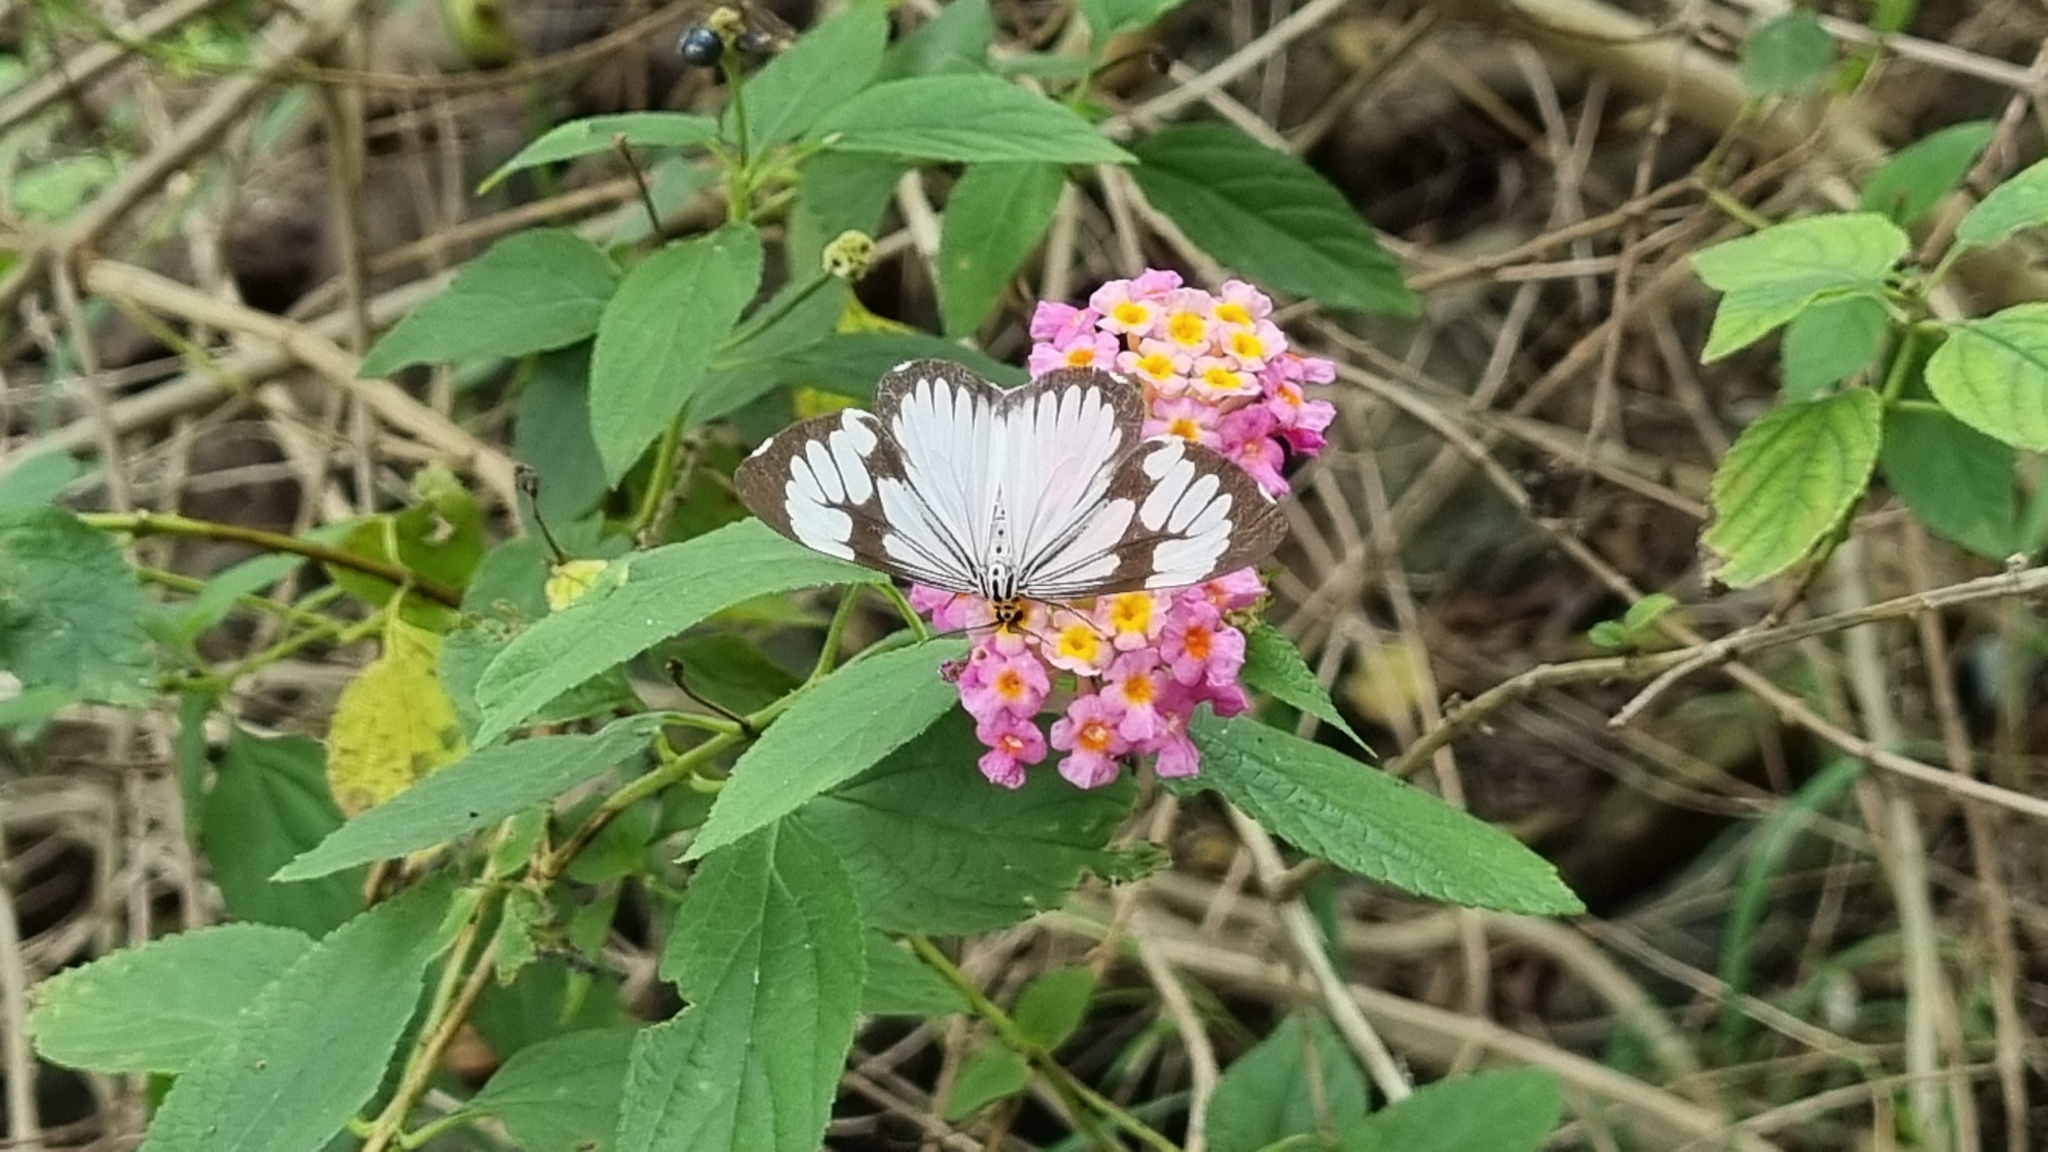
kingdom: Animalia
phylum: Arthropoda
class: Insecta
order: Lepidoptera
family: Erebidae
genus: Nyctemera
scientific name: Nyctemera coleta
